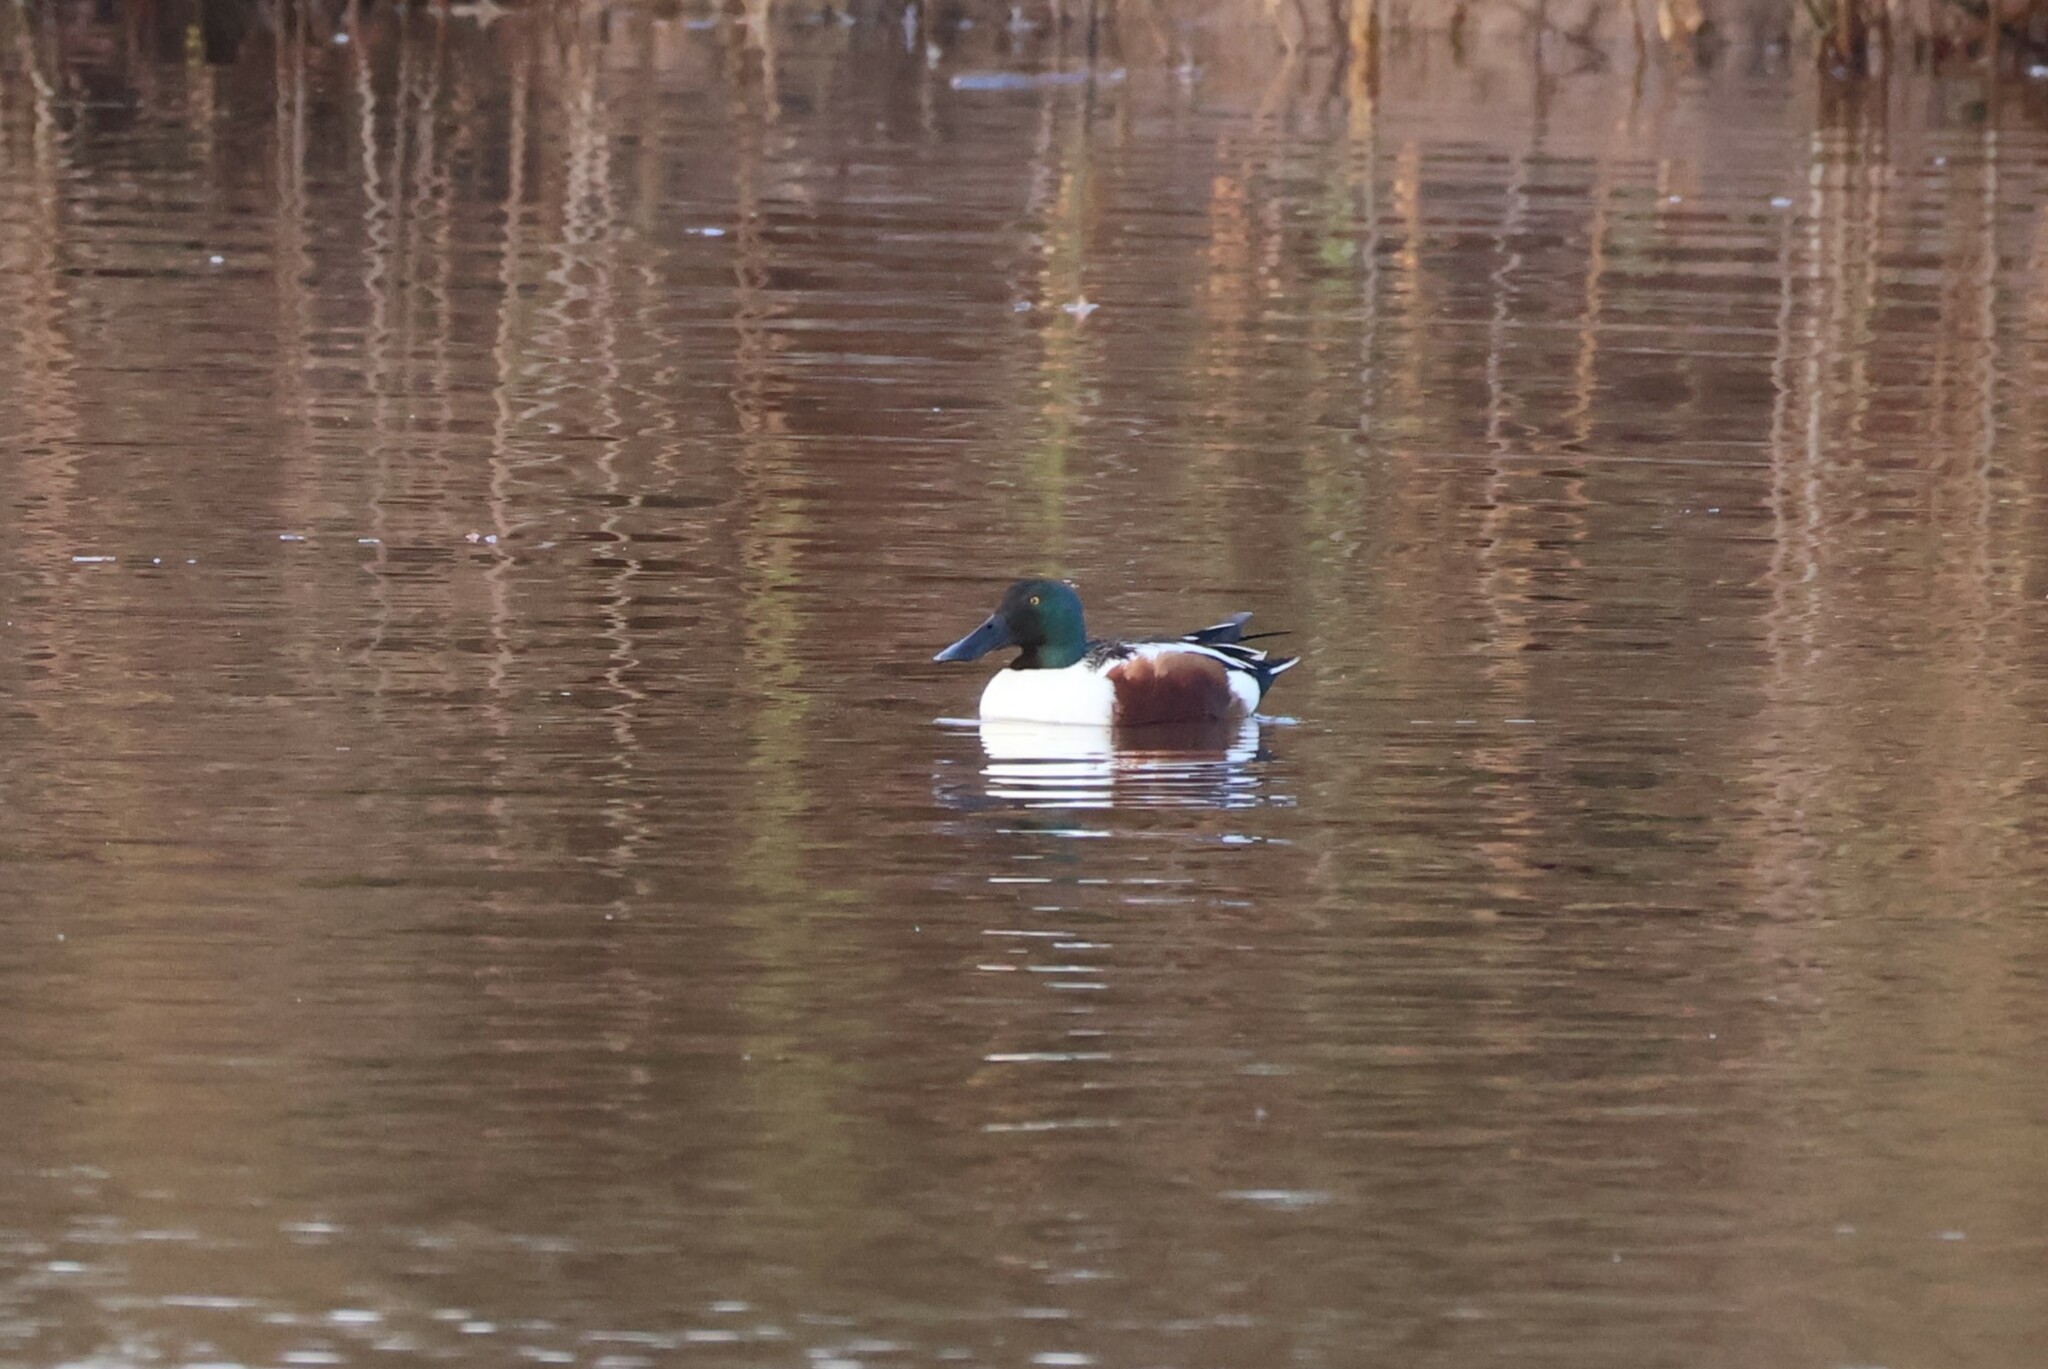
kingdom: Animalia
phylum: Chordata
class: Aves
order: Anseriformes
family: Anatidae
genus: Spatula
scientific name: Spatula clypeata
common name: Northern shoveler
